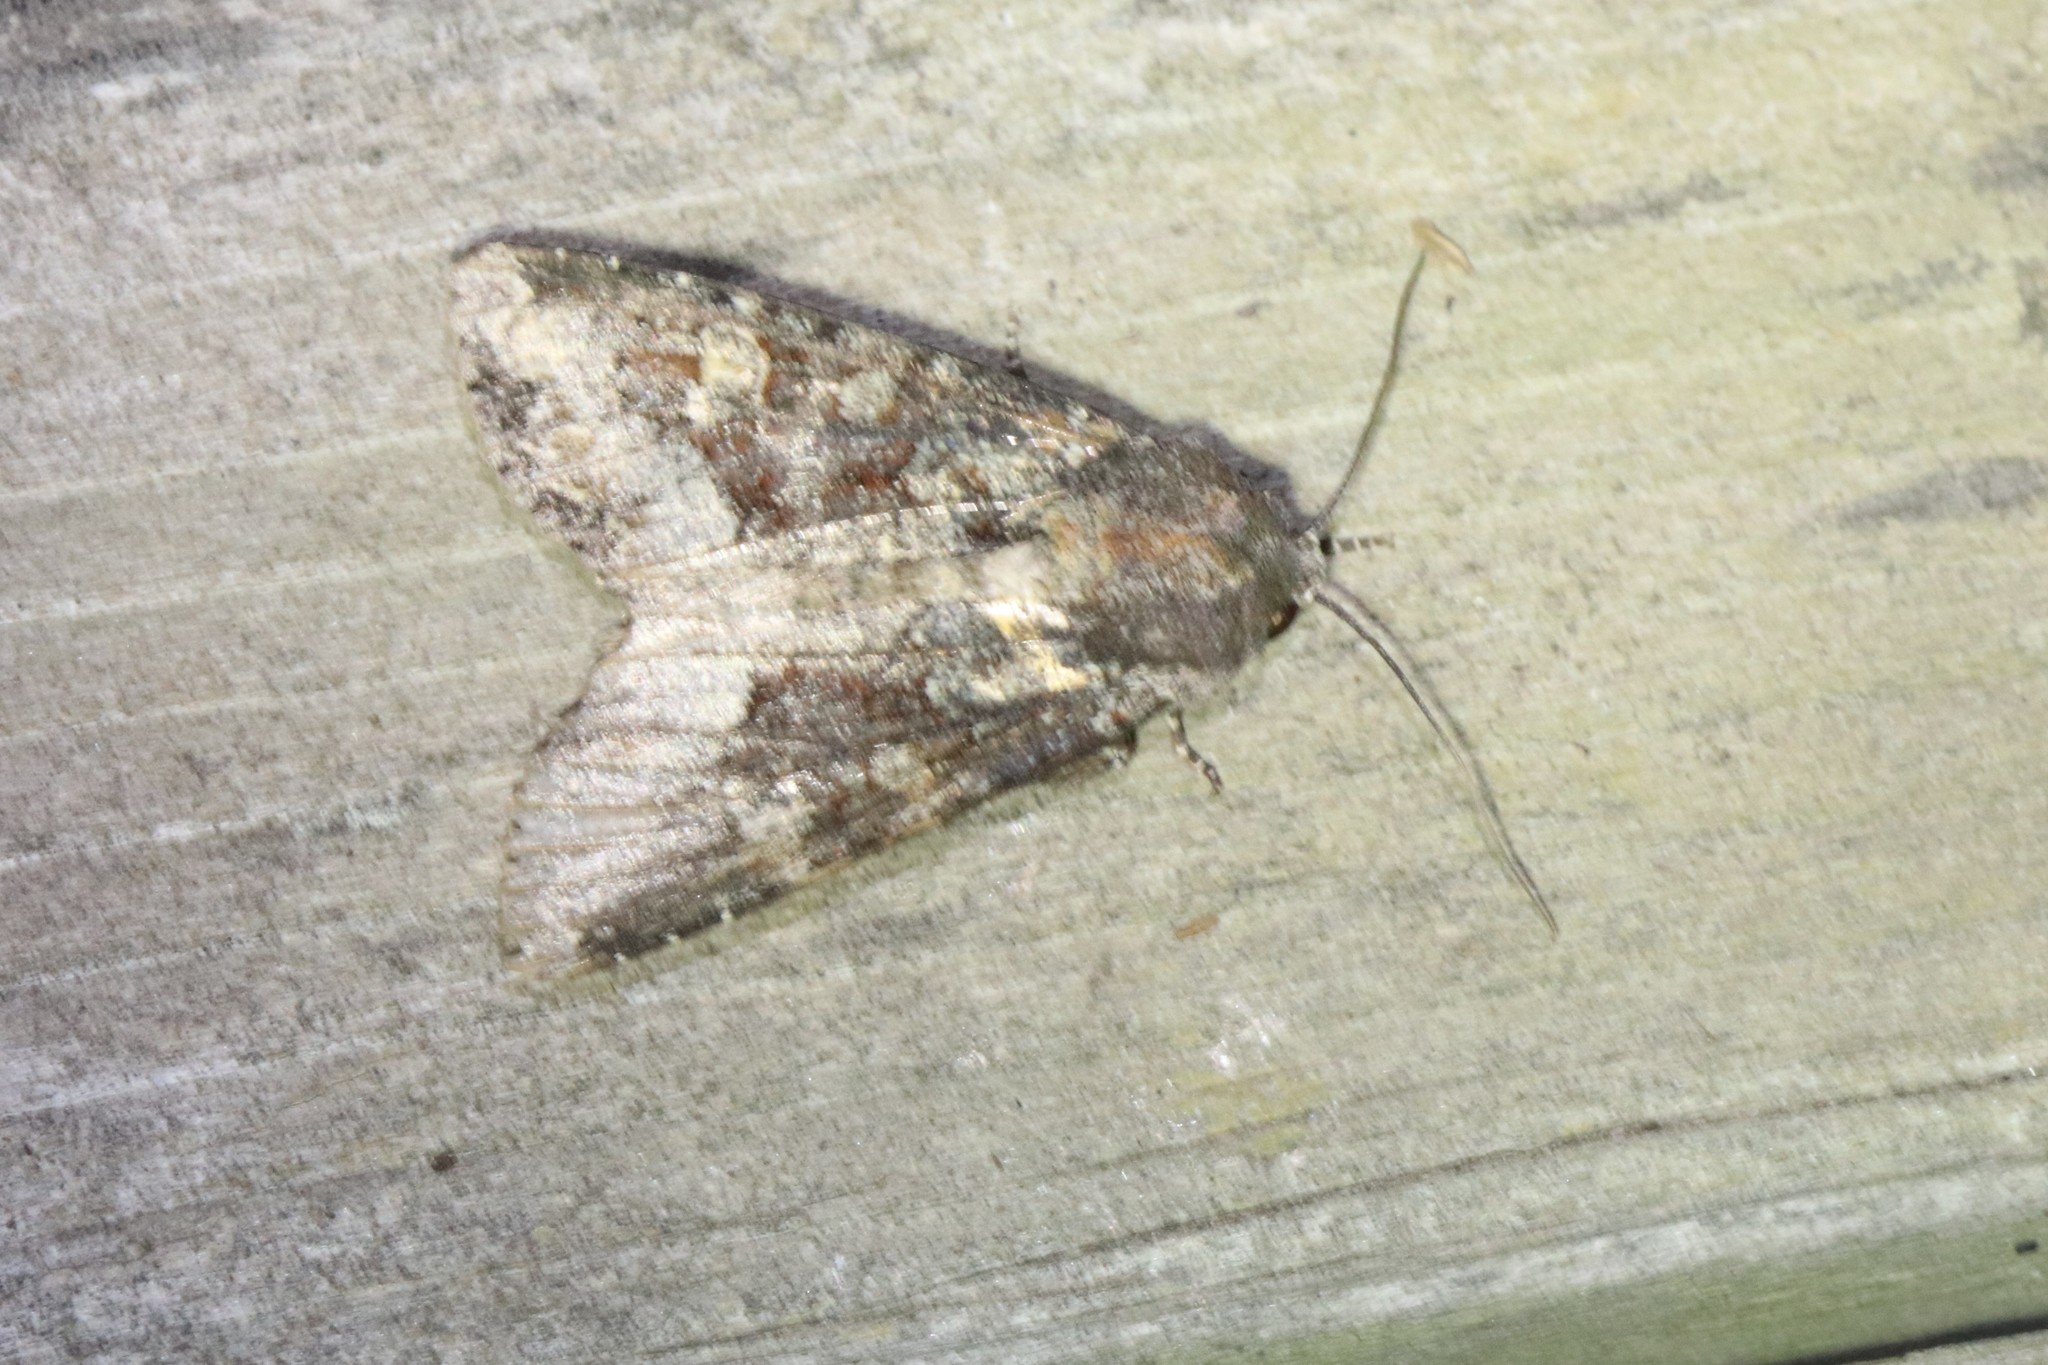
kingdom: Animalia
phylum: Arthropoda
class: Insecta
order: Lepidoptera
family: Noctuidae
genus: Apamea
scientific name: Apamea amputatrix
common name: Yellow-headed cutworm moth
